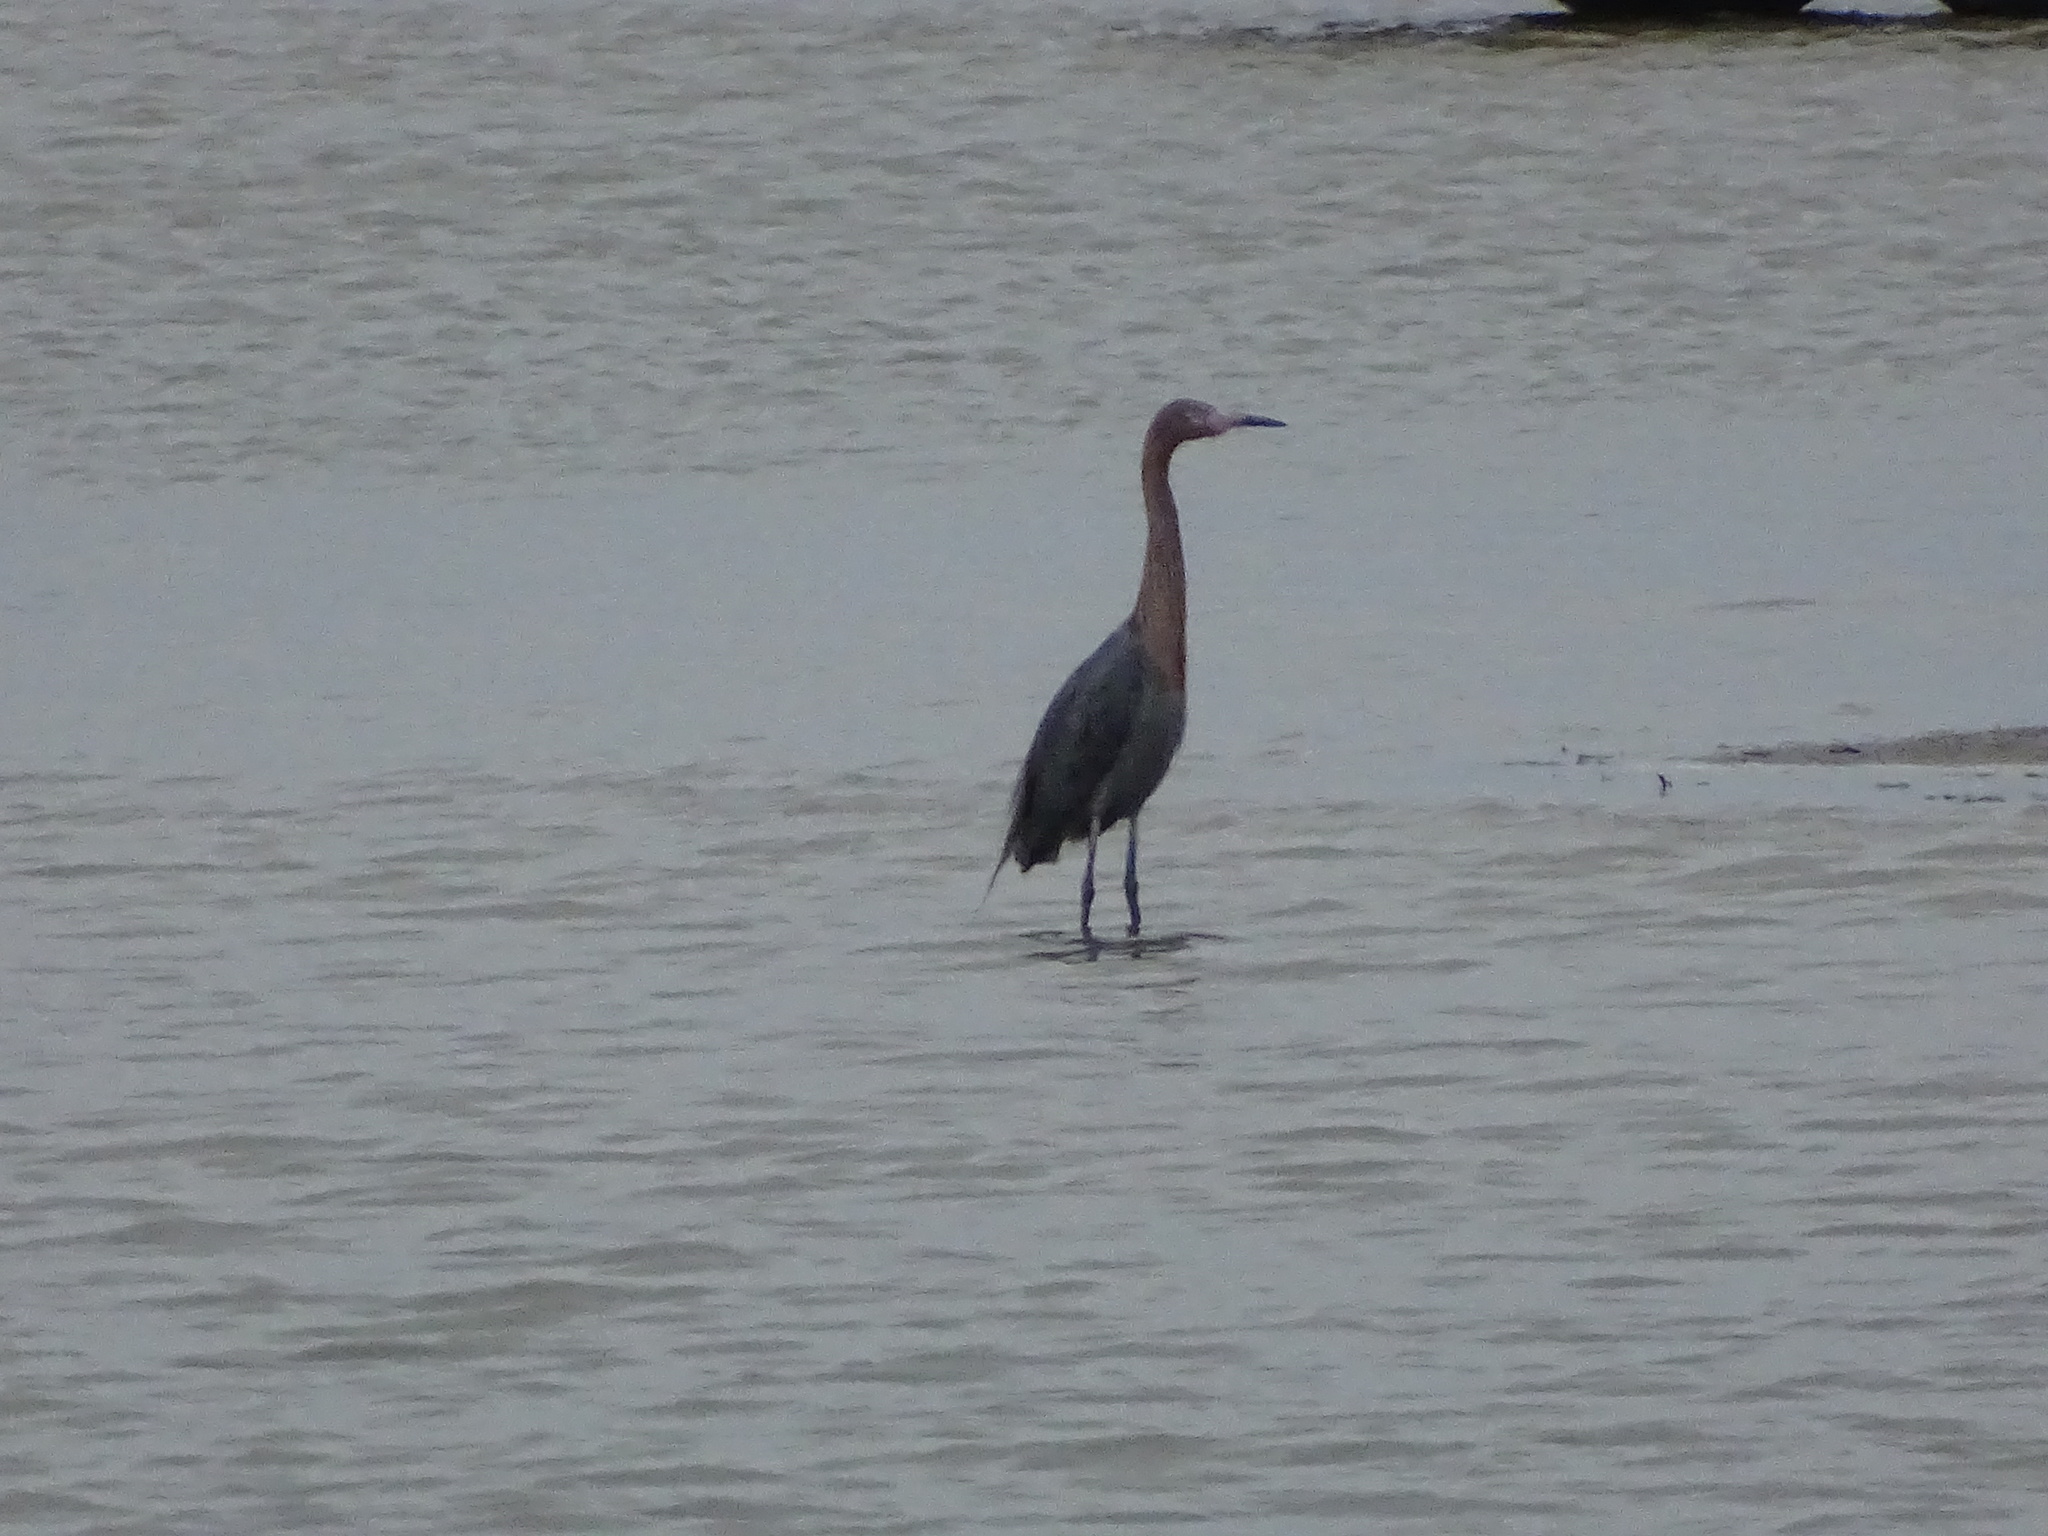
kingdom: Animalia
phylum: Chordata
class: Aves
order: Pelecaniformes
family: Ardeidae
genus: Egretta
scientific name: Egretta rufescens
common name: Reddish egret
